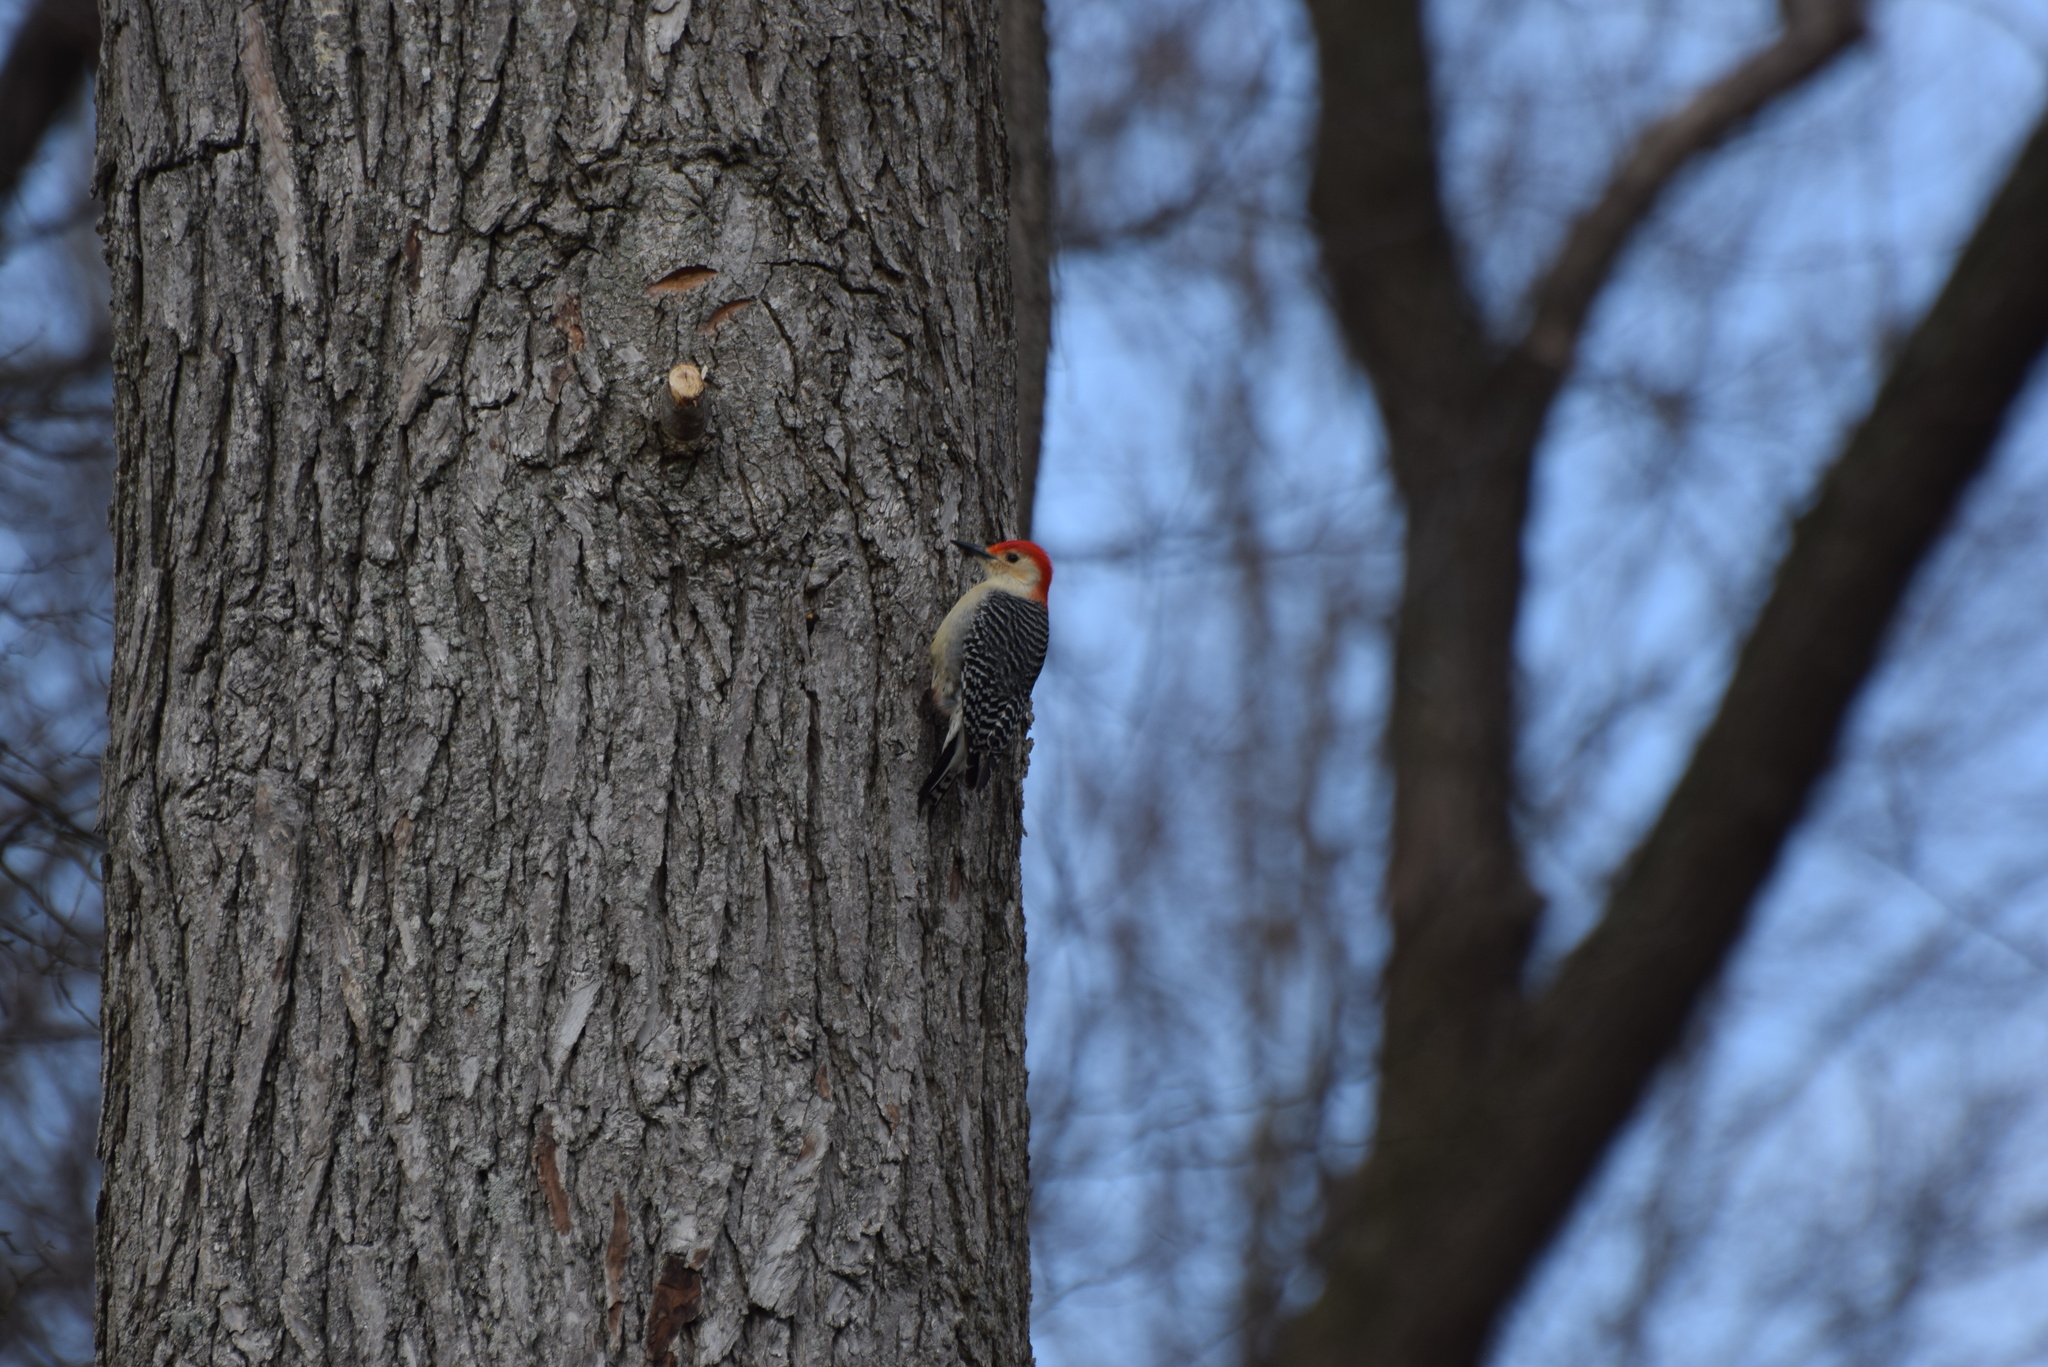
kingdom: Animalia
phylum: Chordata
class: Aves
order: Piciformes
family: Picidae
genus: Melanerpes
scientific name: Melanerpes carolinus
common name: Red-bellied woodpecker
